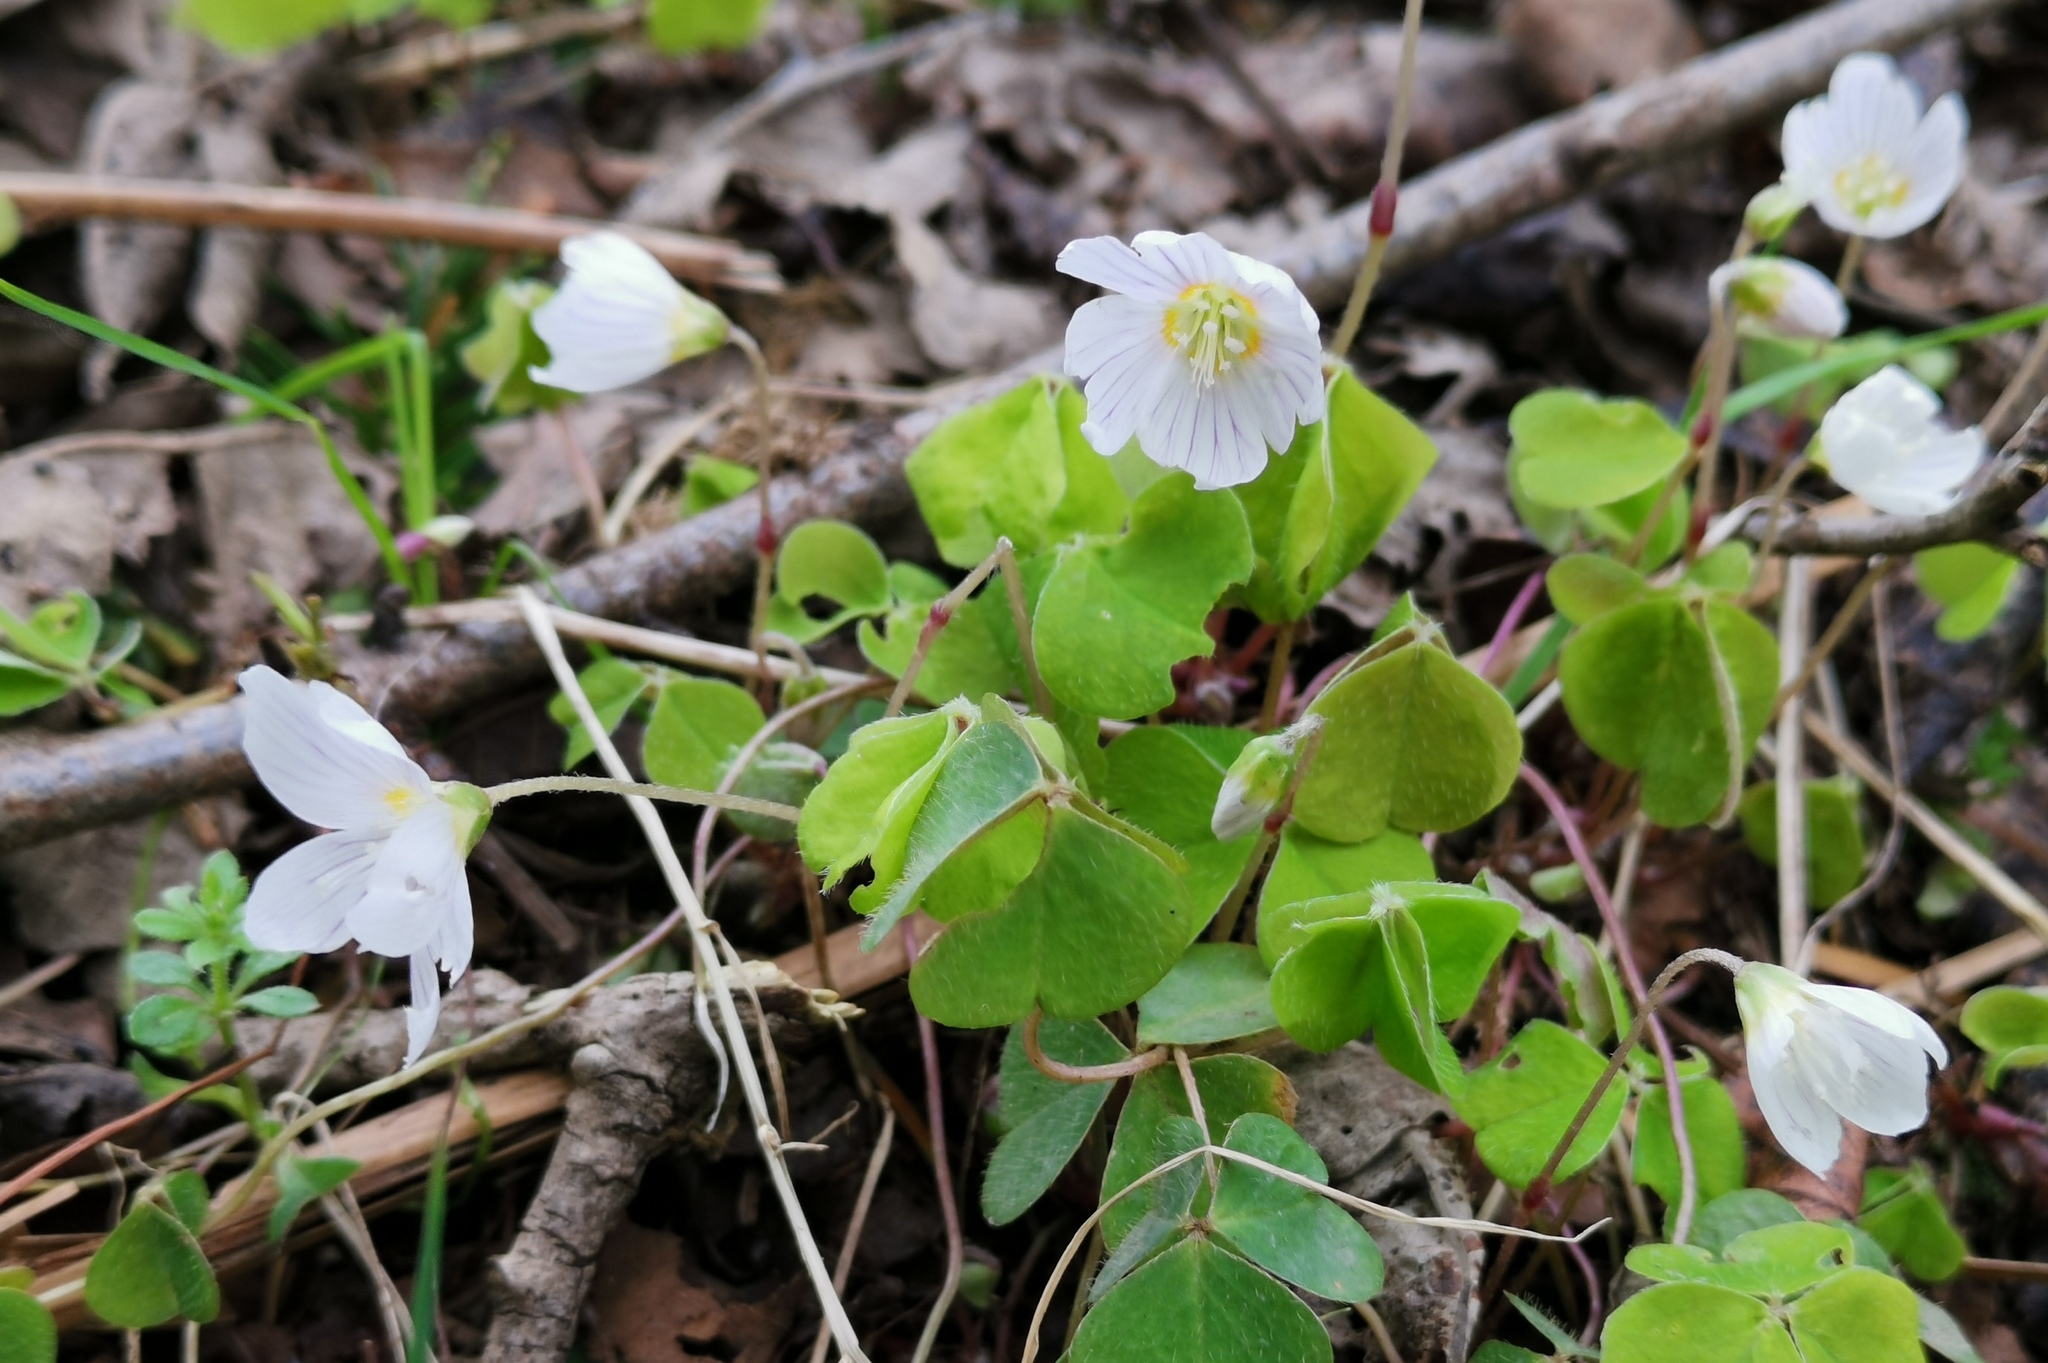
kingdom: Plantae
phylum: Tracheophyta
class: Magnoliopsida
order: Oxalidales
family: Oxalidaceae
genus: Oxalis
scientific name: Oxalis acetosella
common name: Wood-sorrel
